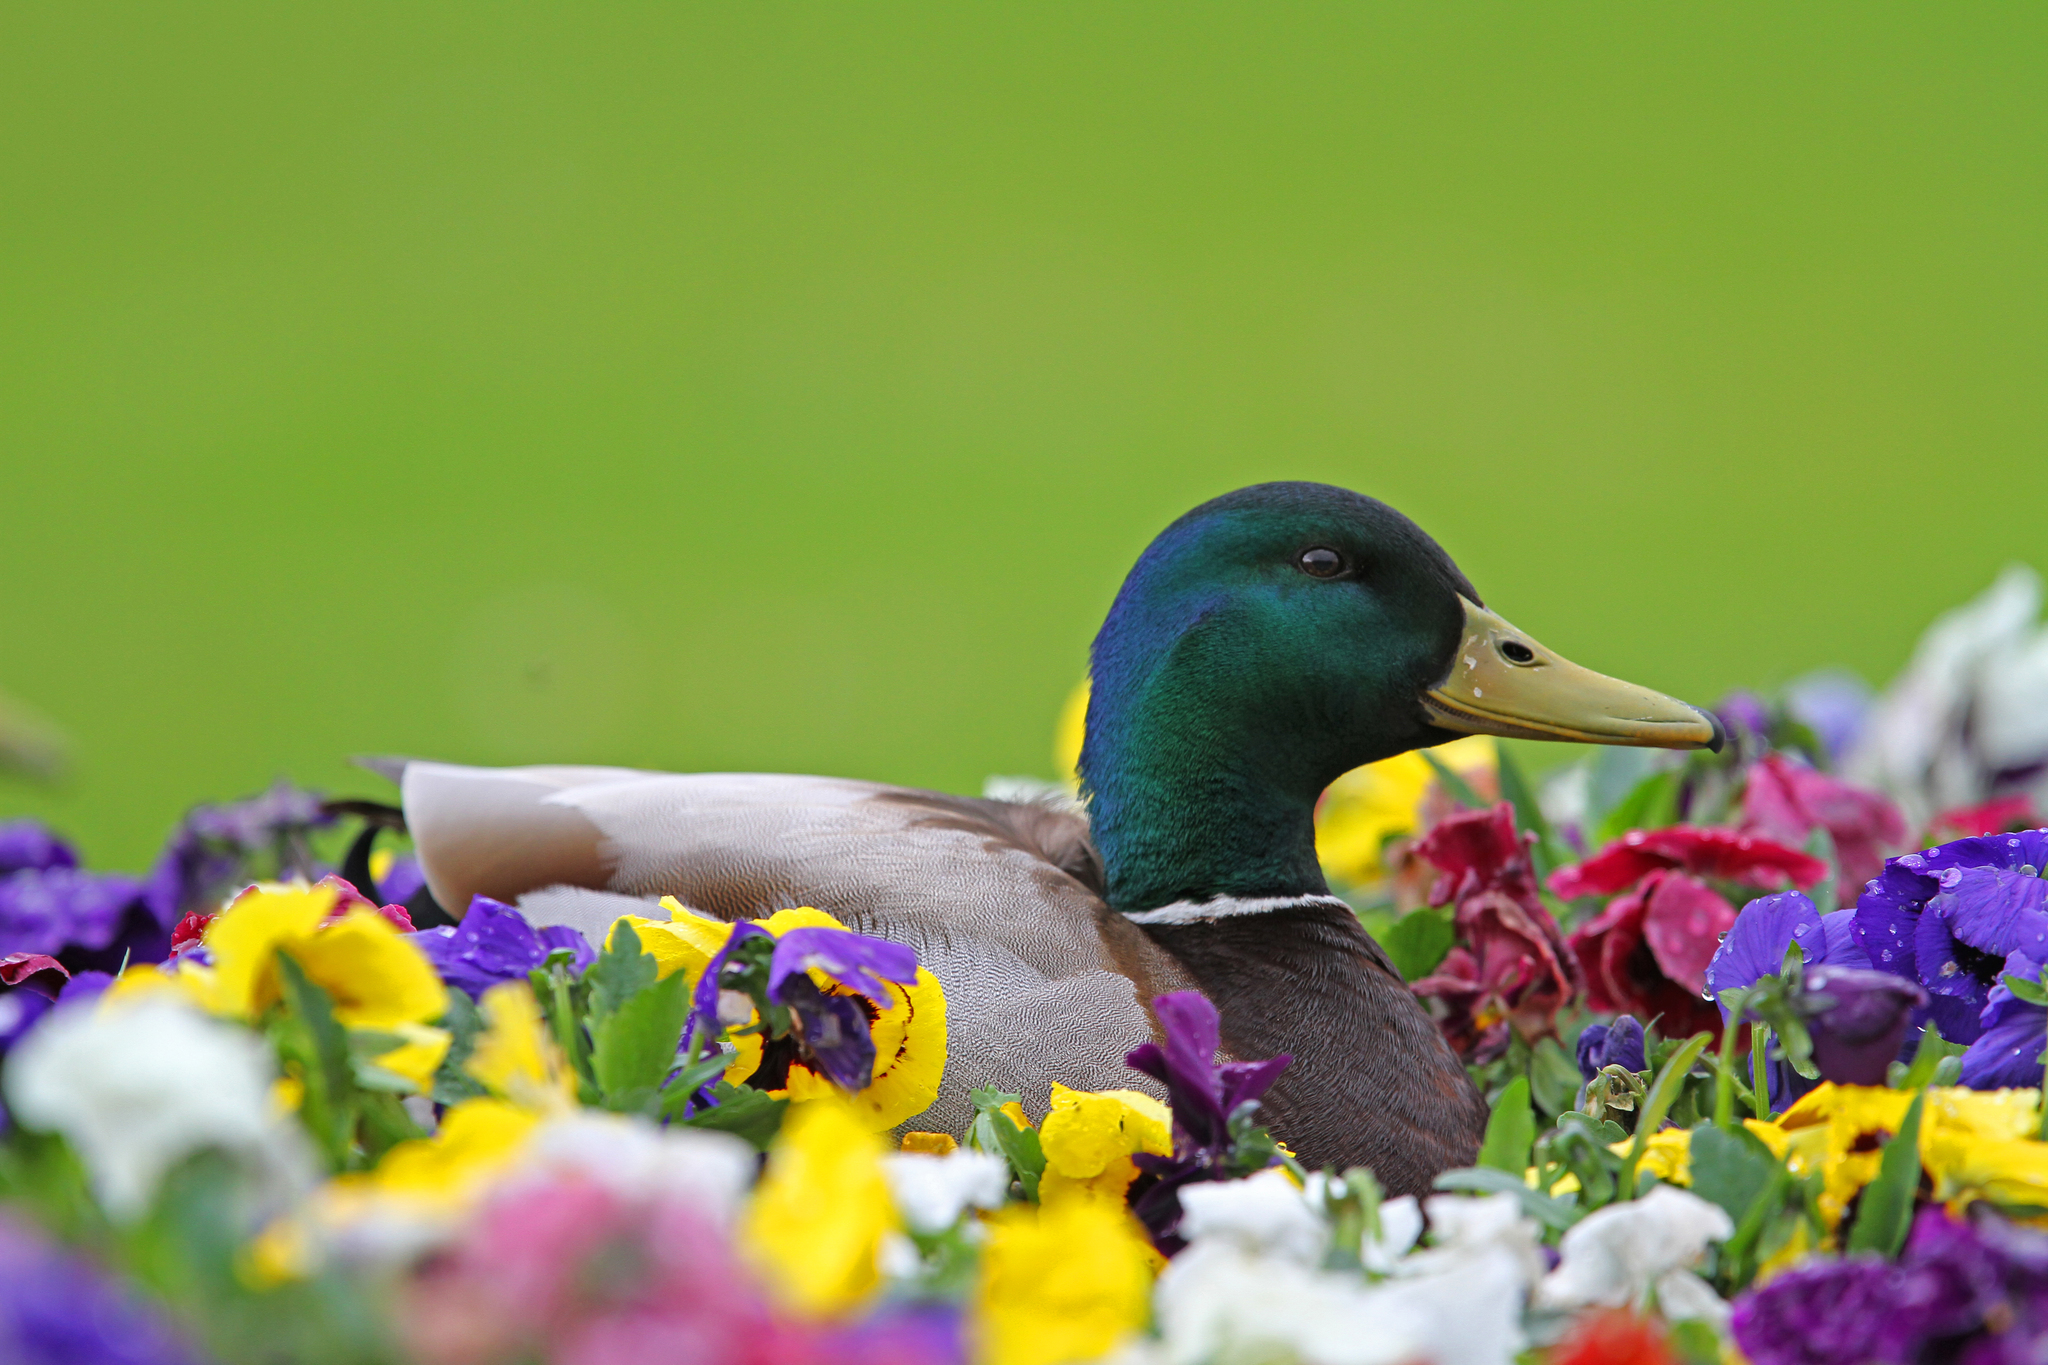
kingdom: Animalia
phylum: Chordata
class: Aves
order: Anseriformes
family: Anatidae
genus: Anas
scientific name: Anas platyrhynchos
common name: Mallard
